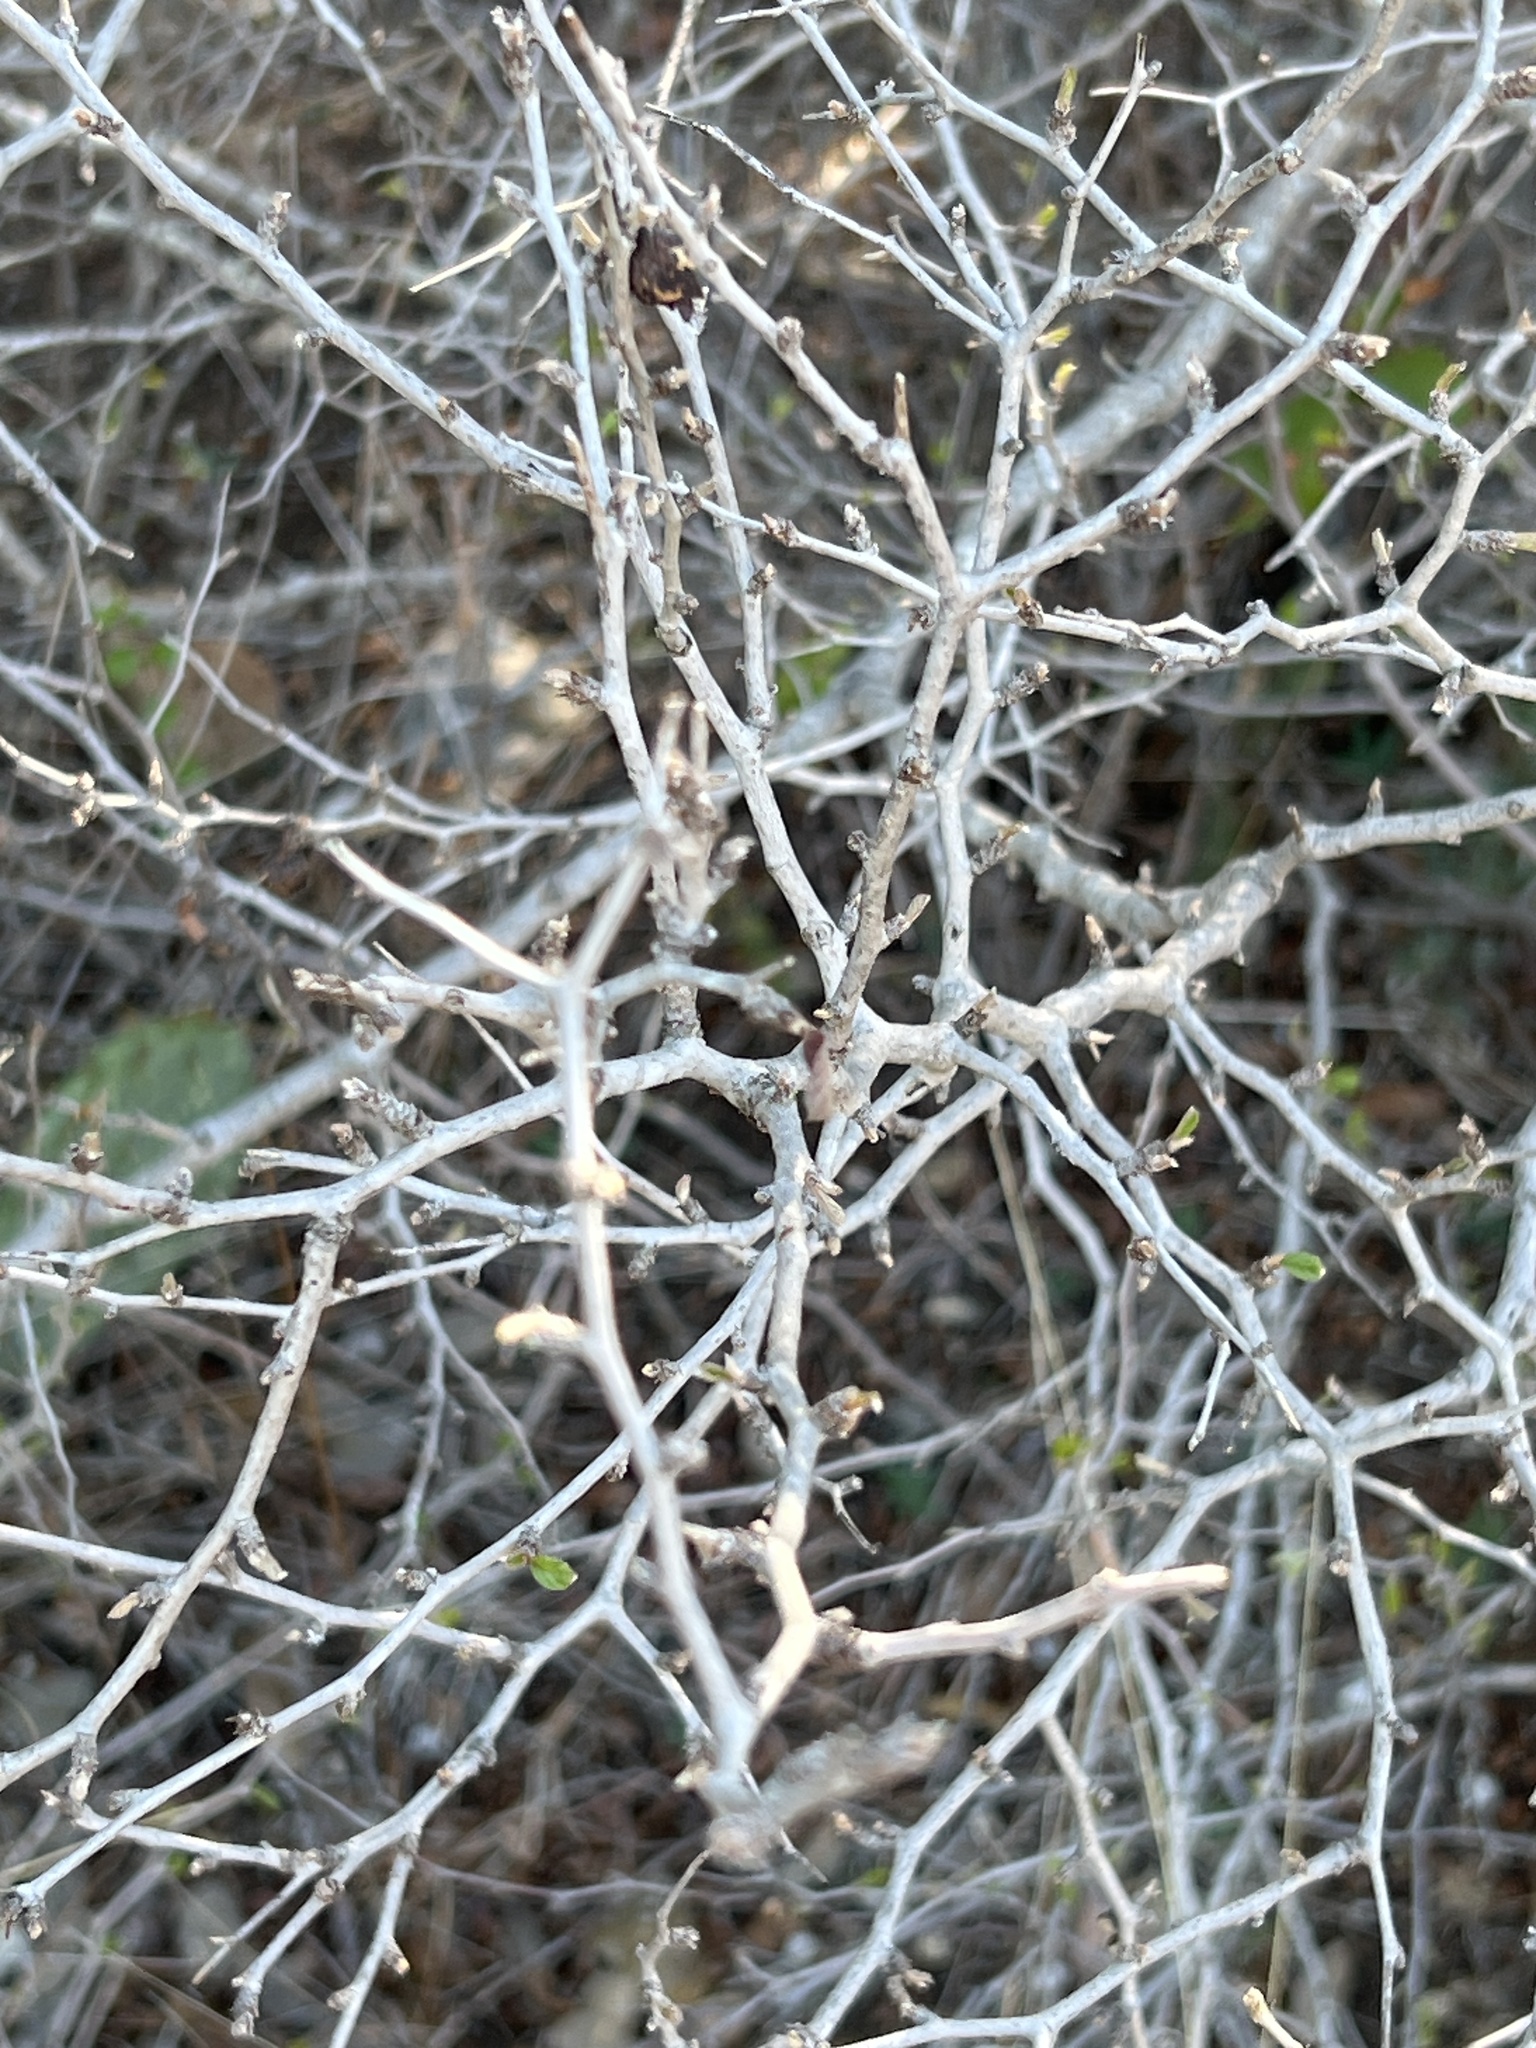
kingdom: Plantae
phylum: Tracheophyta
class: Magnoliopsida
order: Rosales
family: Rhamnaceae
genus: Colubrina
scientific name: Colubrina texensis
